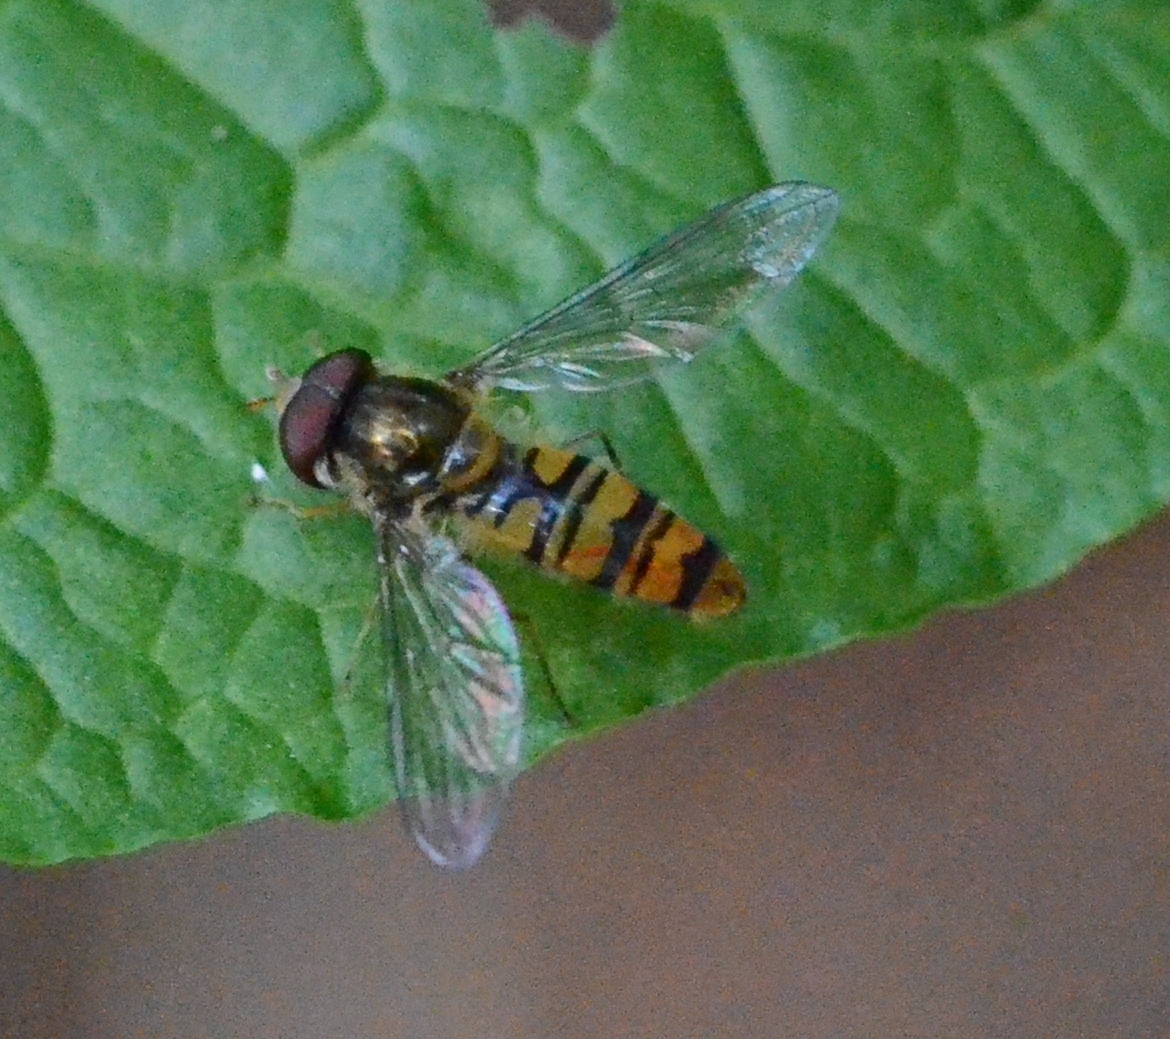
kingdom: Animalia
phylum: Arthropoda
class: Insecta
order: Diptera
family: Syrphidae
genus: Episyrphus
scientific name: Episyrphus balteatus
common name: Marmalade hoverfly
